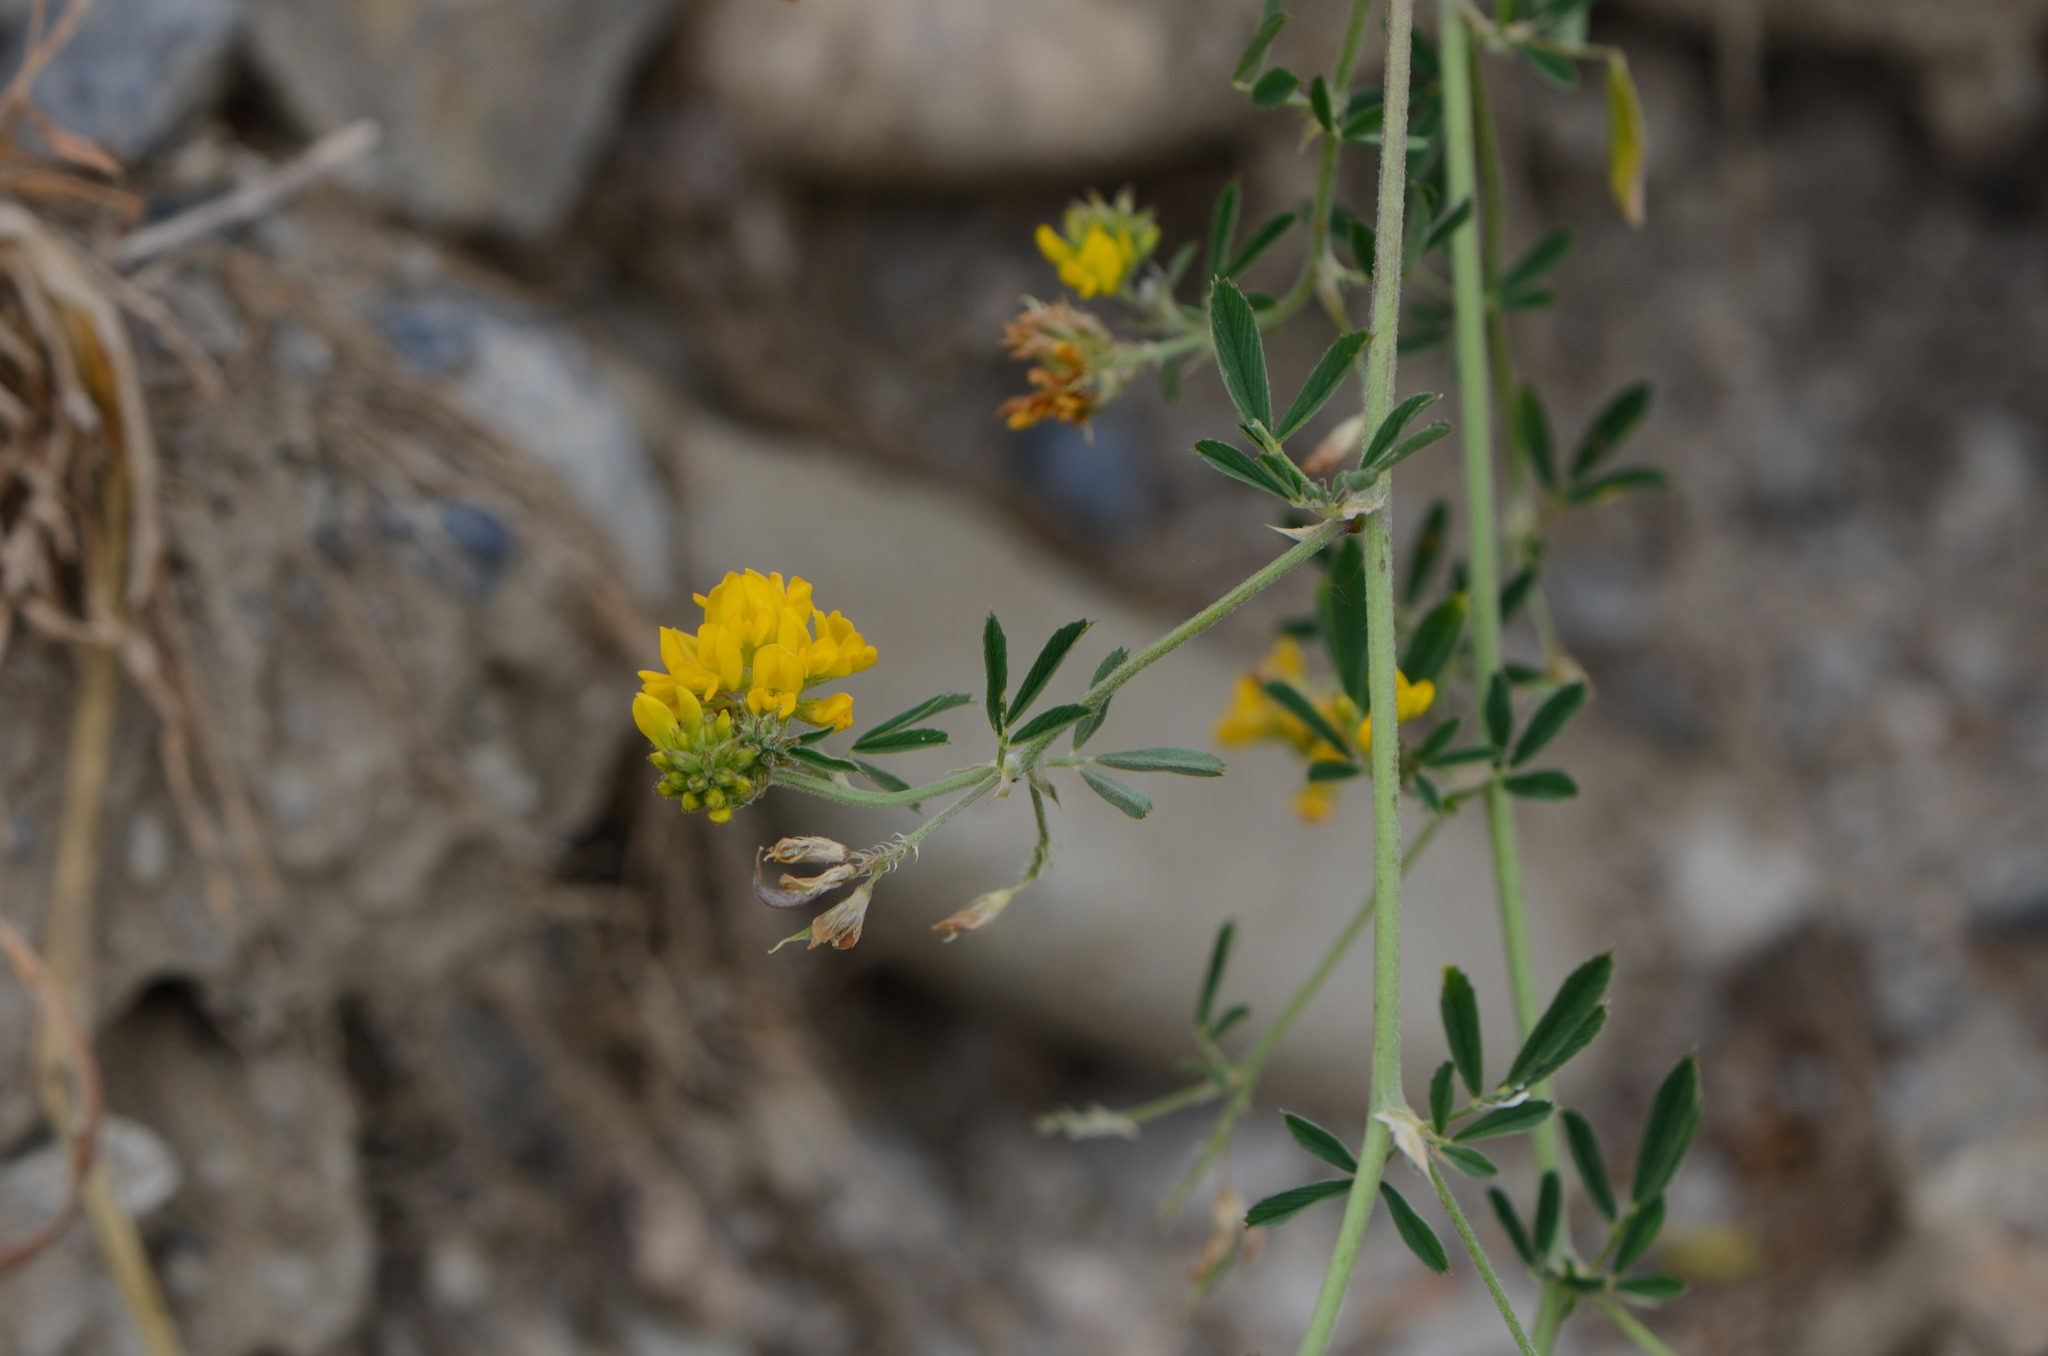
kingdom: Plantae
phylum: Tracheophyta
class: Magnoliopsida
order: Fabales
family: Fabaceae
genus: Medicago
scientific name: Medicago falcata
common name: Sickle medick
